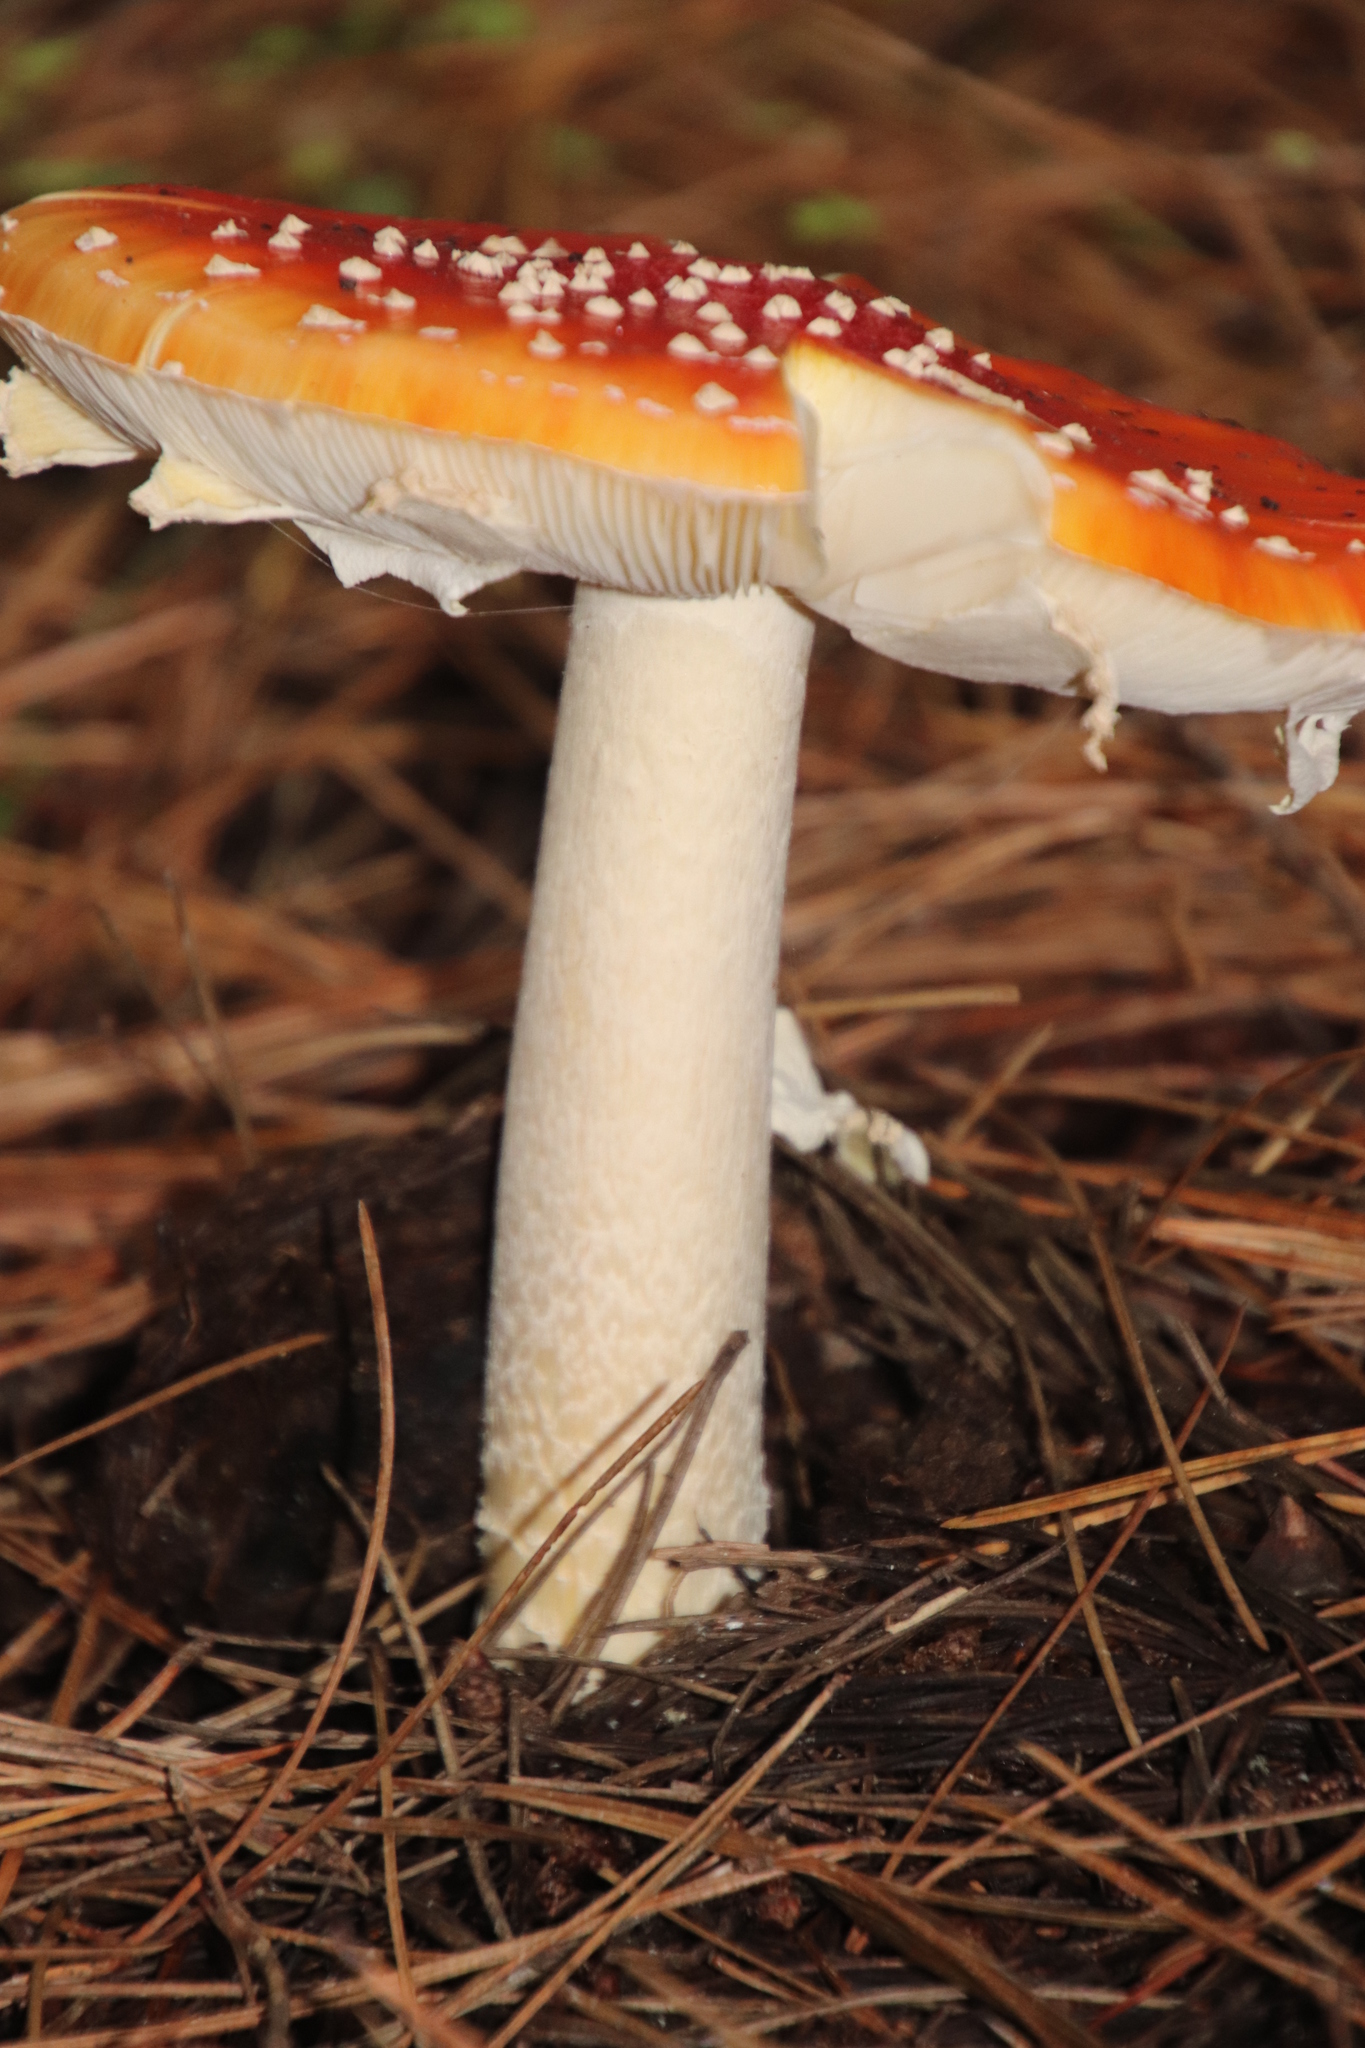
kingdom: Fungi
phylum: Basidiomycota
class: Agaricomycetes
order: Agaricales
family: Amanitaceae
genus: Amanita
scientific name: Amanita muscaria
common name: Fly agaric
